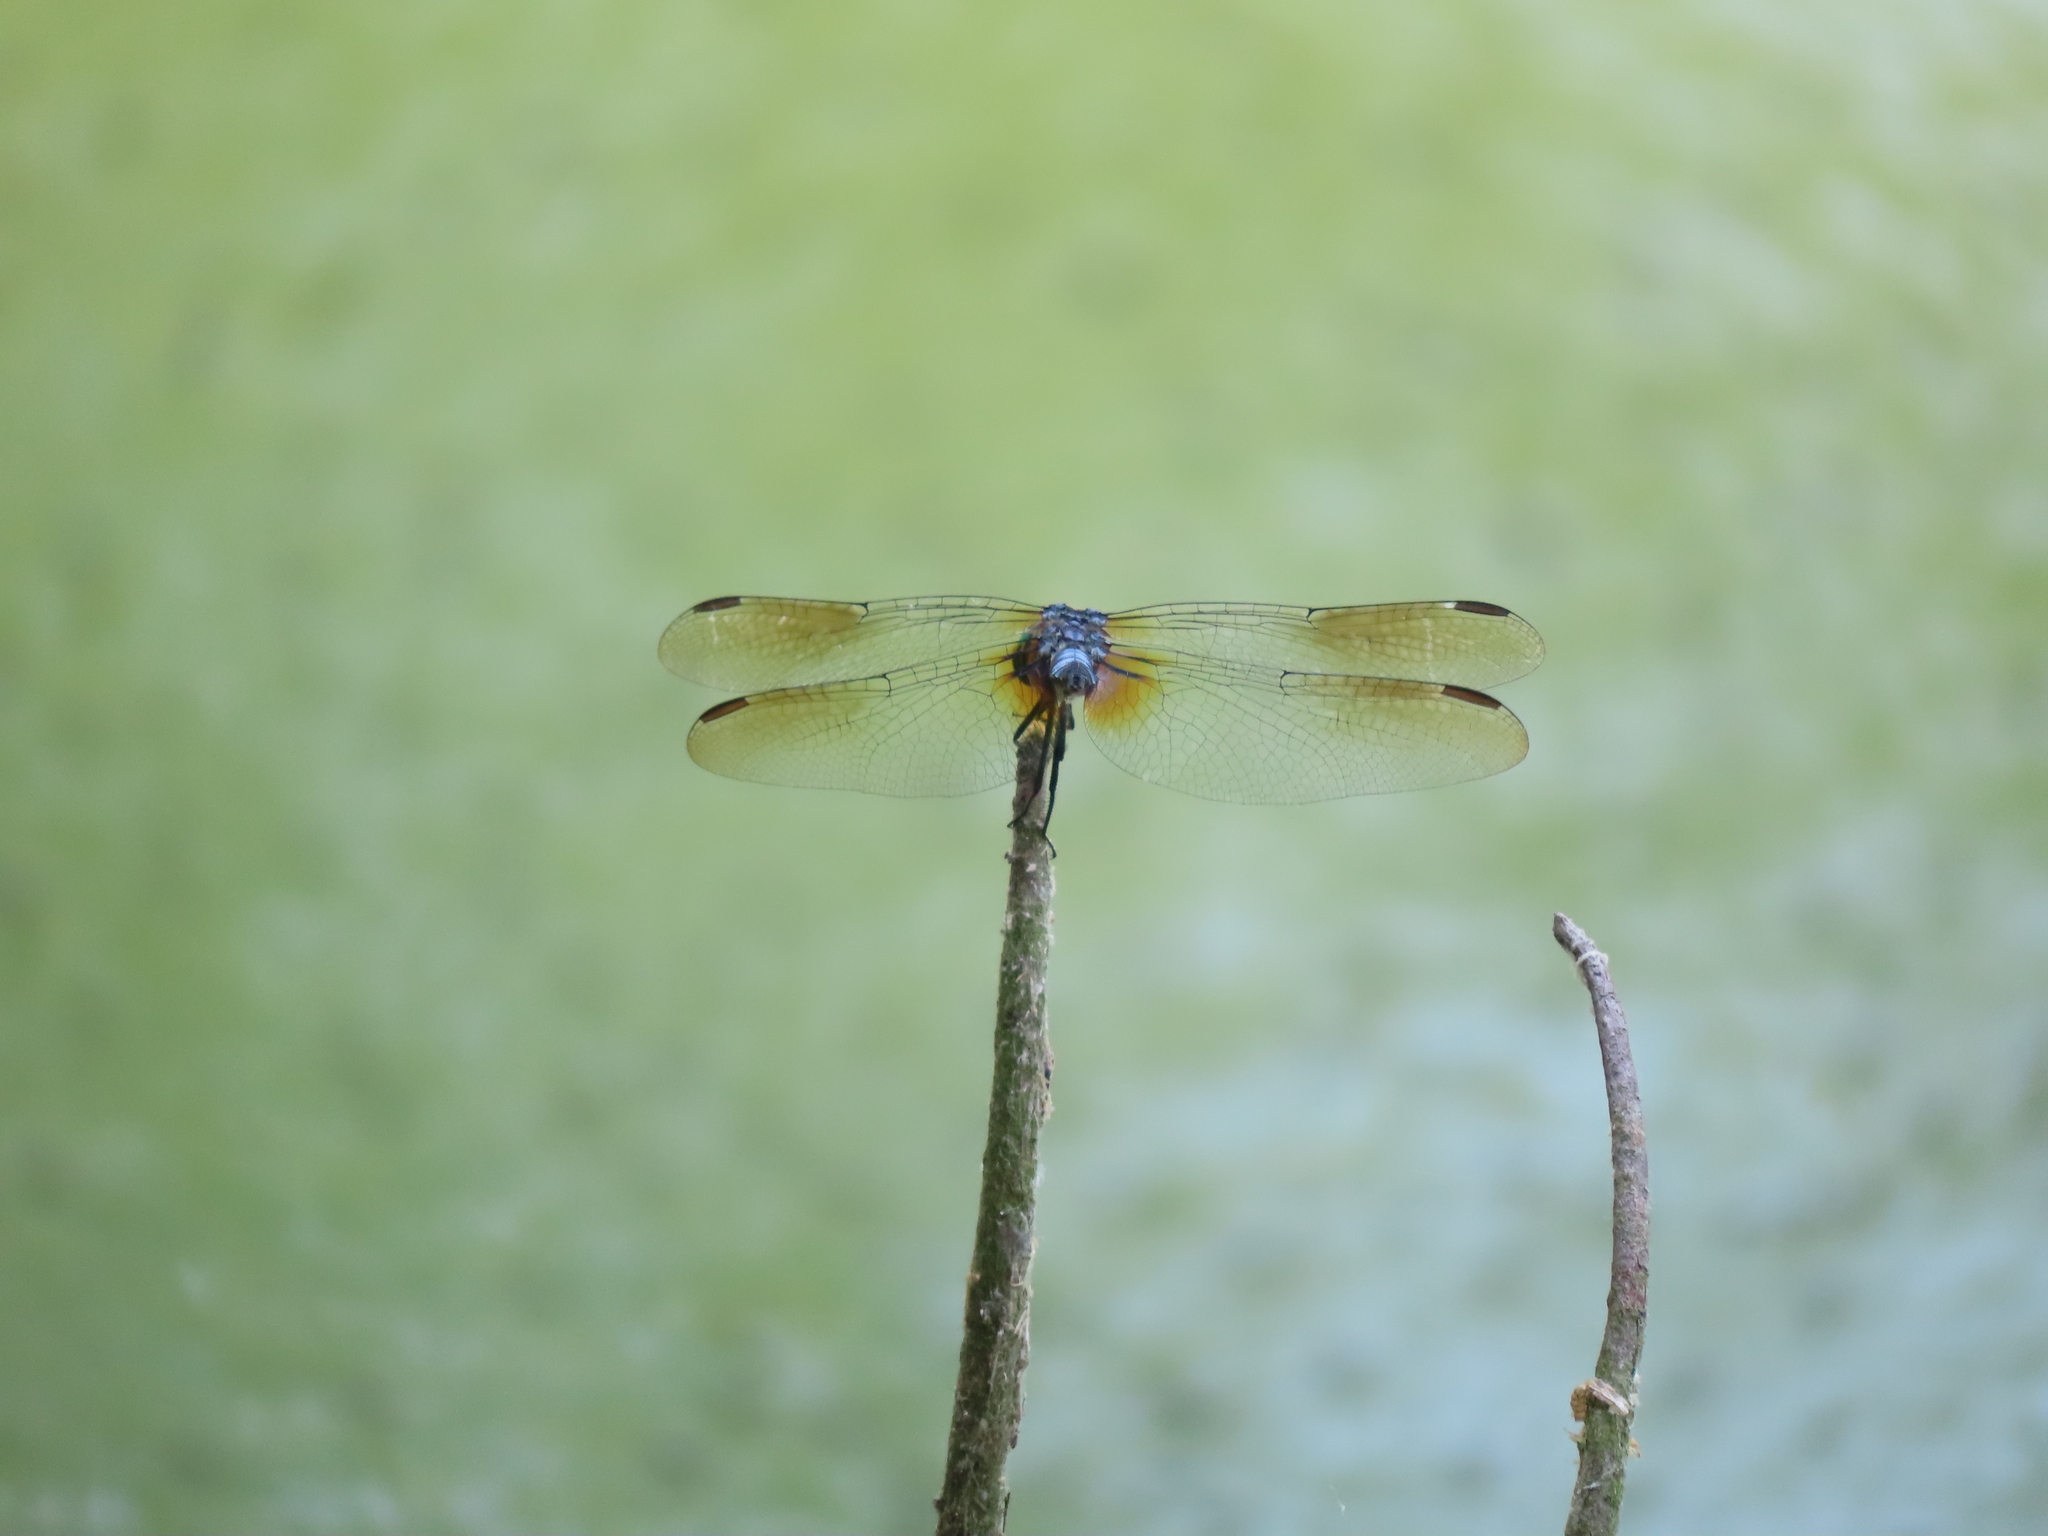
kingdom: Animalia
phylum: Arthropoda
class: Insecta
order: Odonata
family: Libellulidae
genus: Pachydiplax
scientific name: Pachydiplax longipennis
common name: Blue dasher
